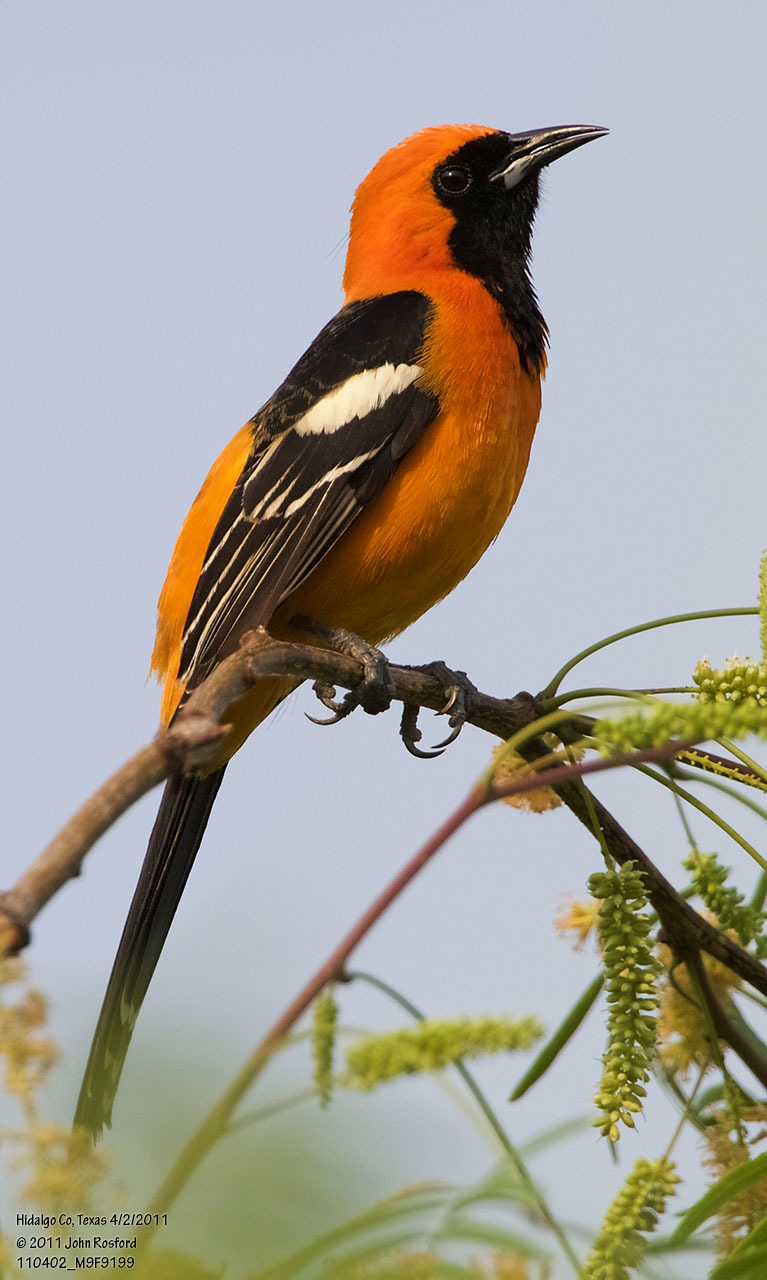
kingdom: Animalia
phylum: Chordata
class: Aves
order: Passeriformes
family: Icteridae
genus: Icterus
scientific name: Icterus cucullatus
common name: Hooded oriole
